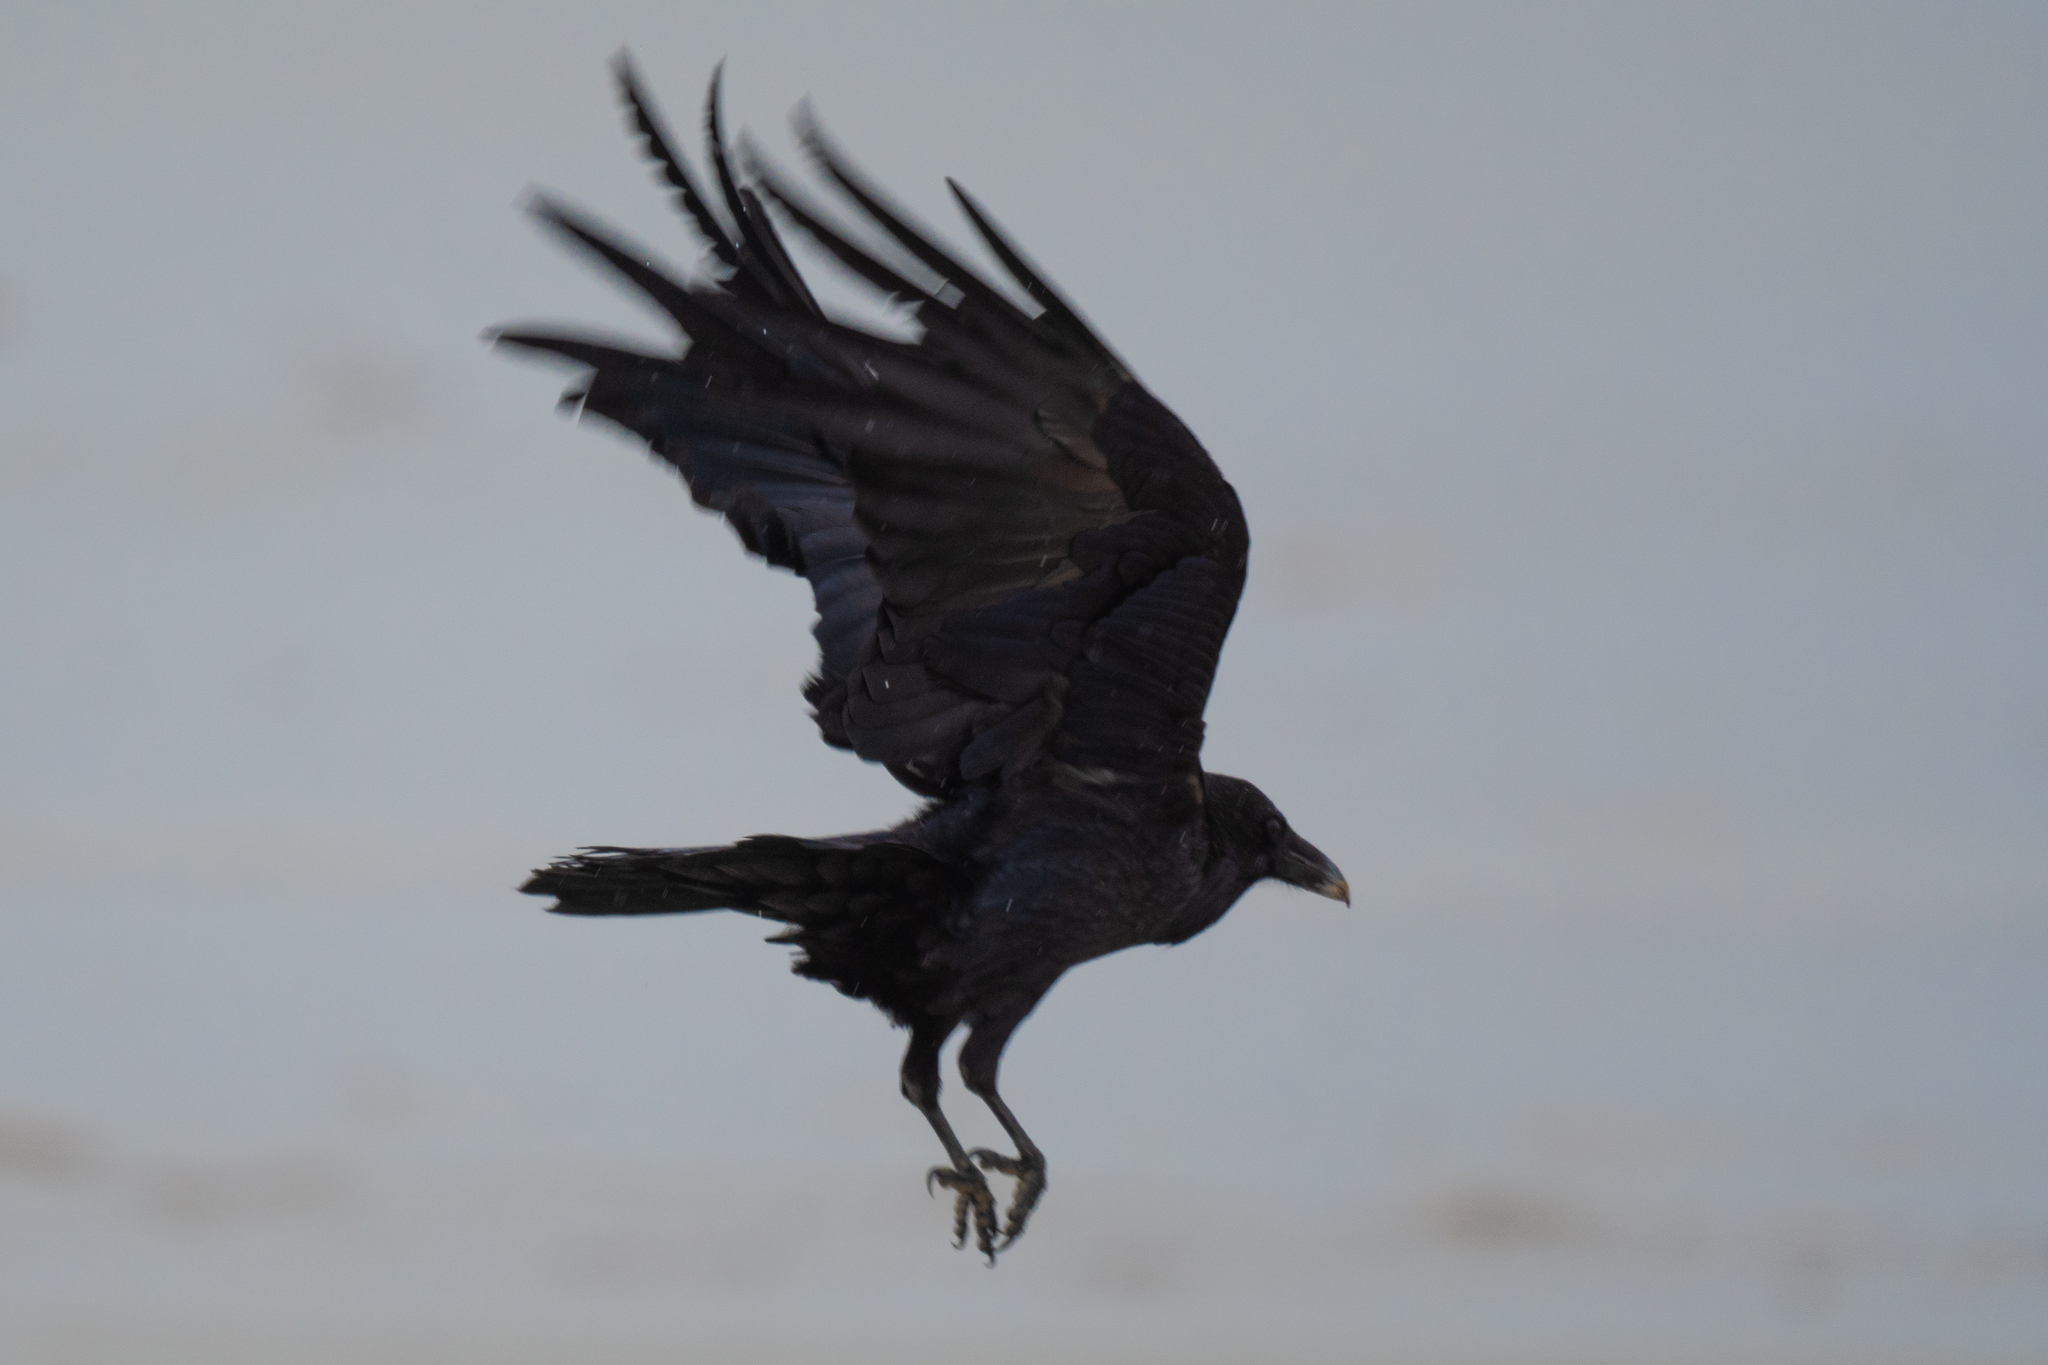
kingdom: Animalia
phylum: Chordata
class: Aves
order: Passeriformes
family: Corvidae
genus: Corvus
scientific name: Corvus corax
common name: Common raven
